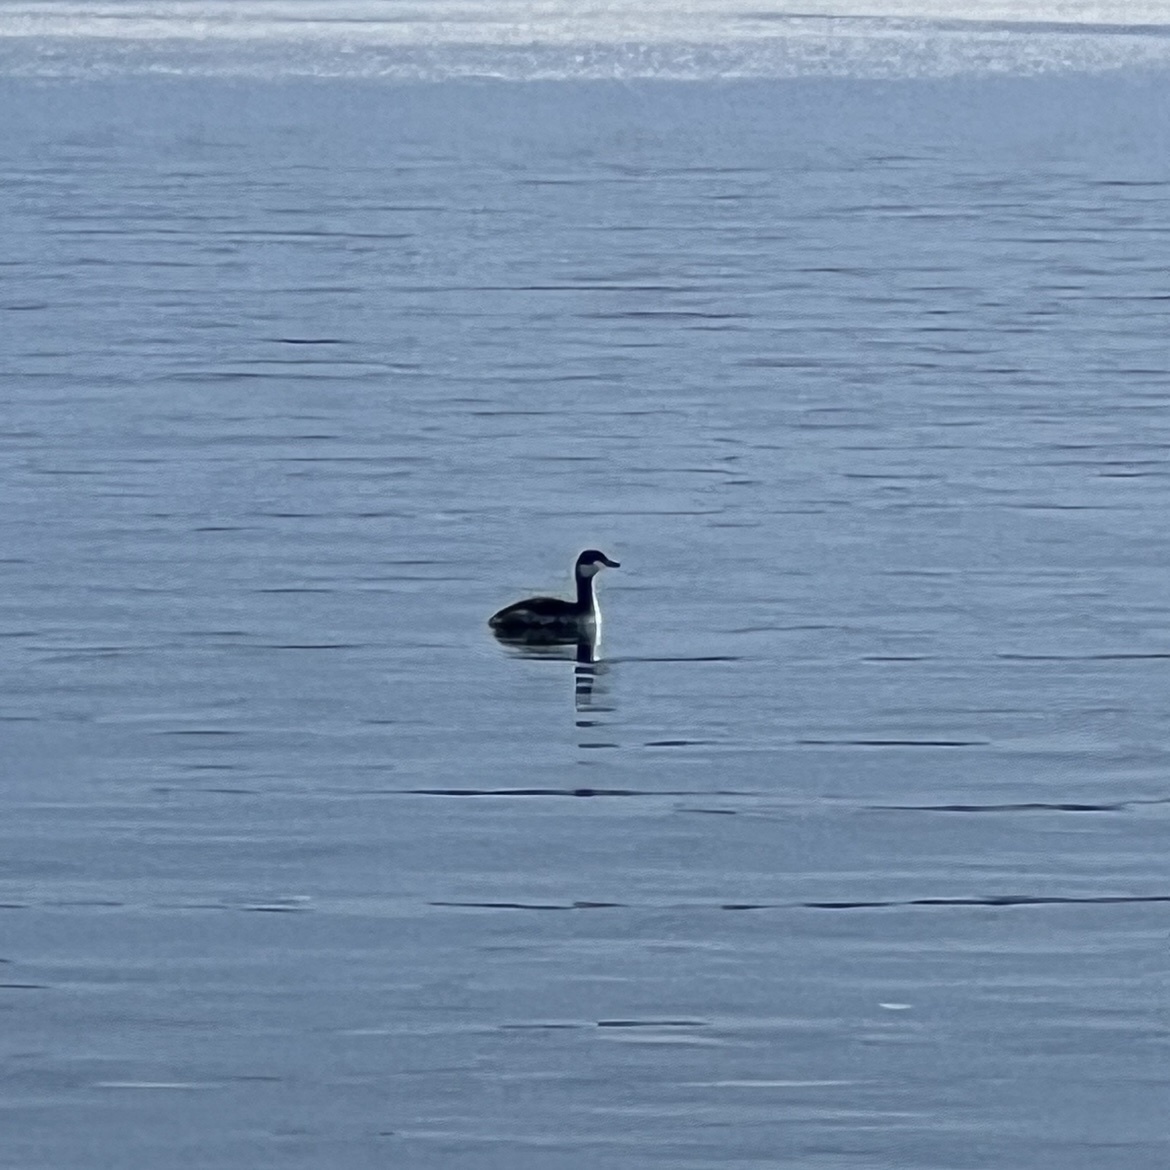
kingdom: Animalia
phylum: Chordata
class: Aves
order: Podicipediformes
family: Podicipedidae
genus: Podiceps
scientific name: Podiceps auritus
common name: Horned grebe
